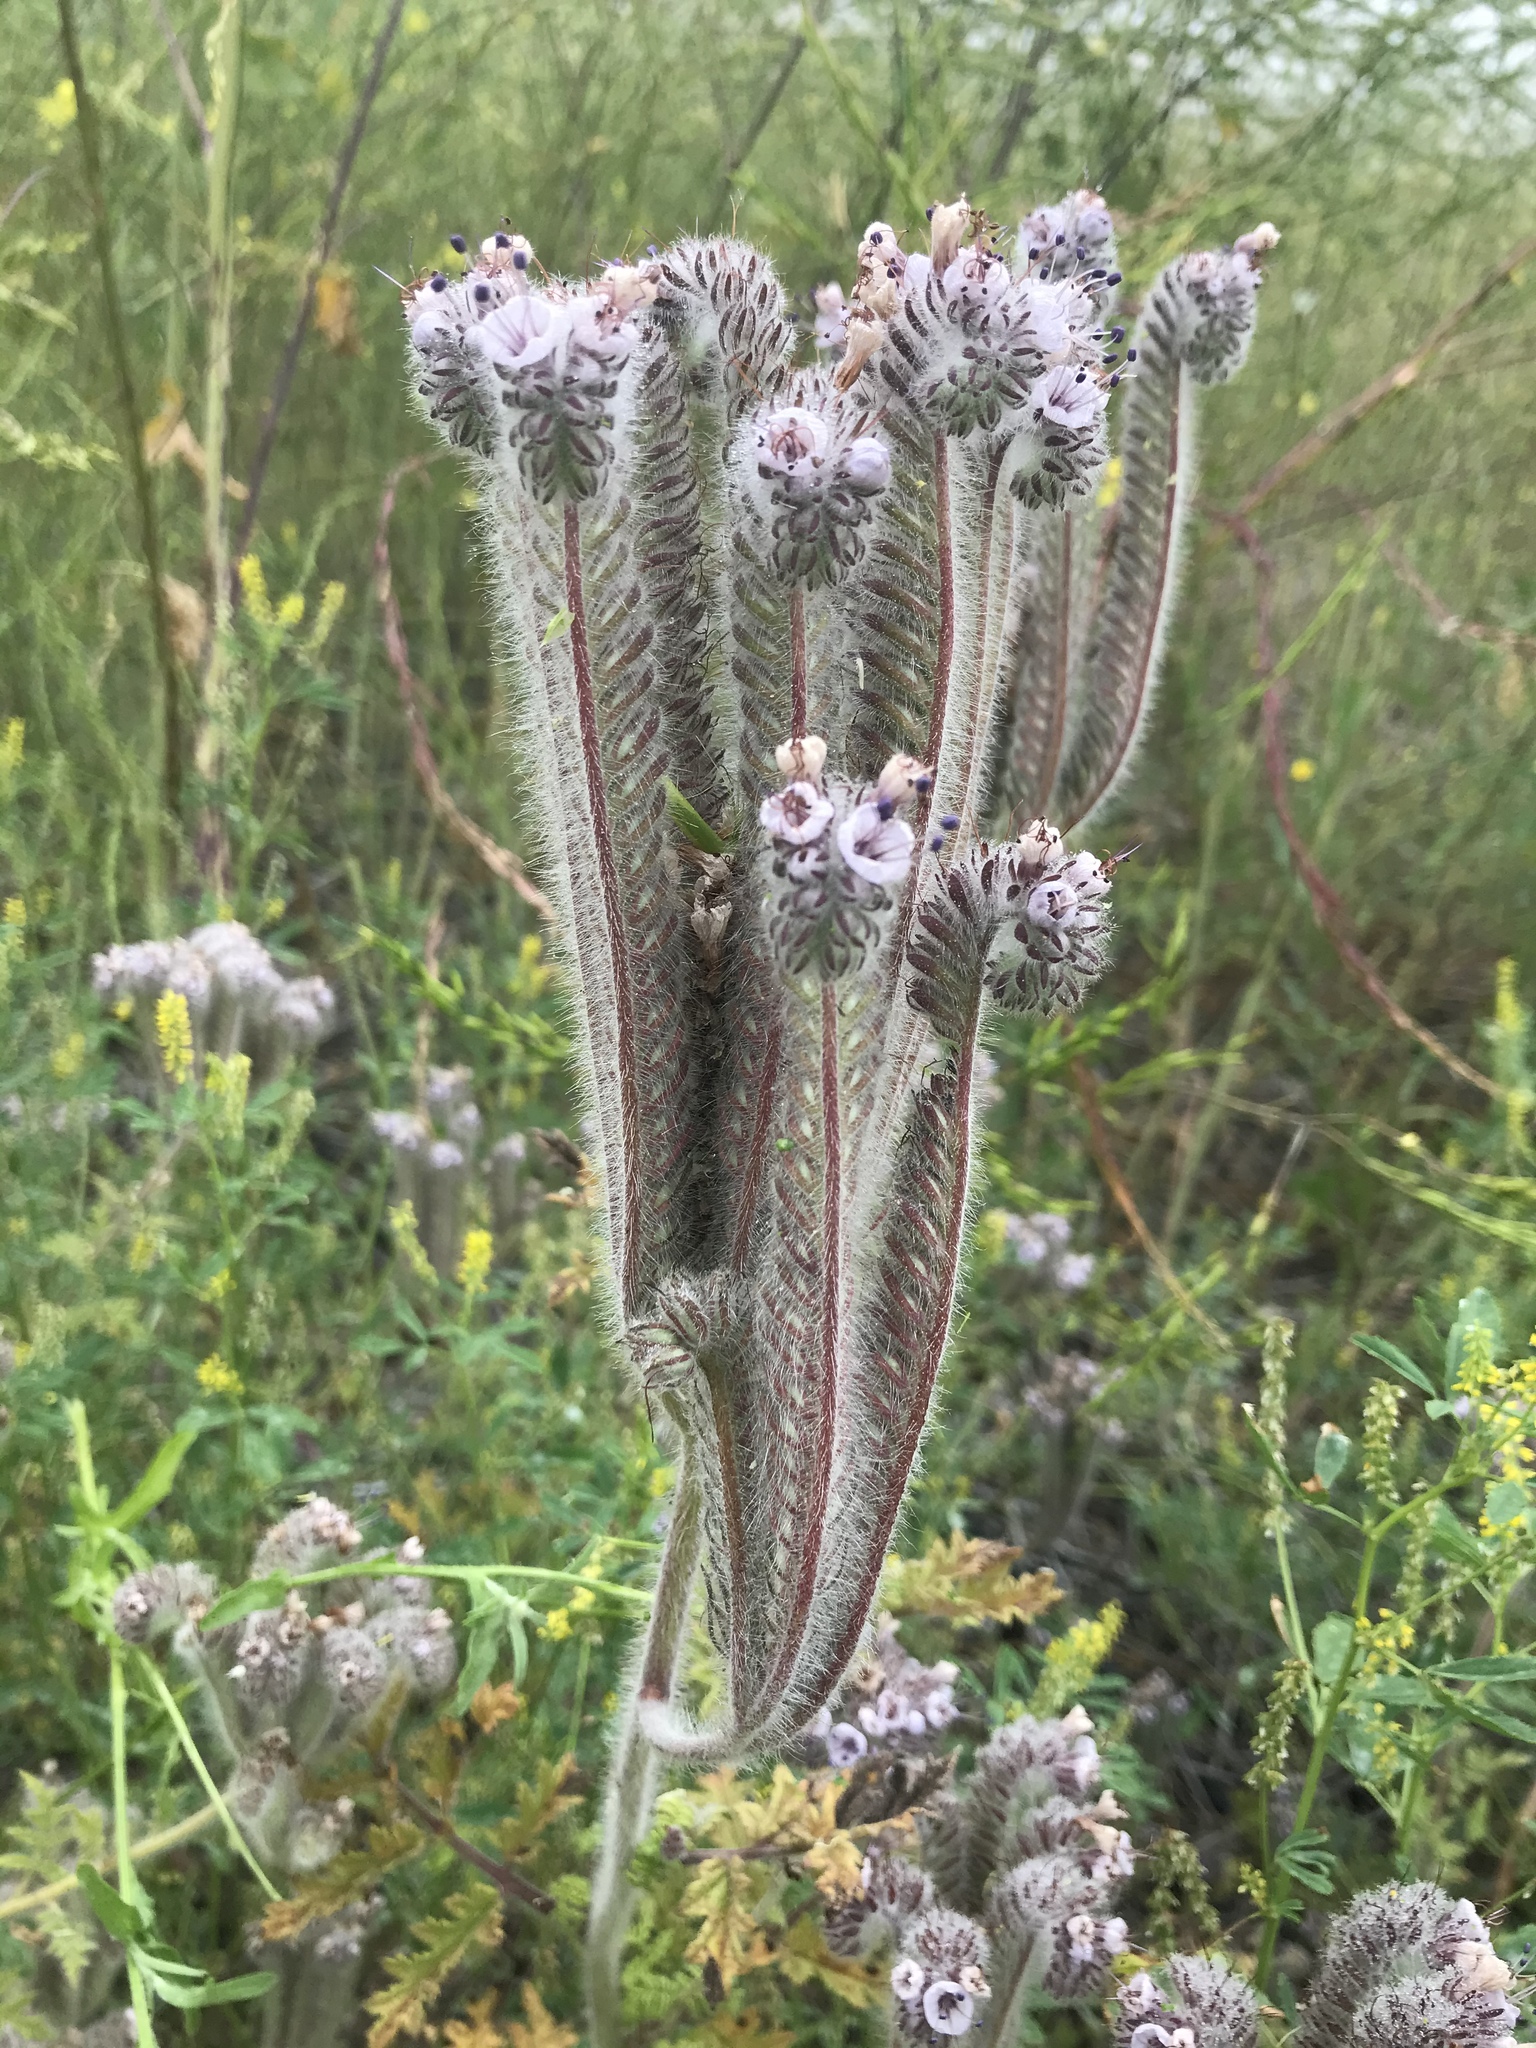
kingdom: Plantae
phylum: Tracheophyta
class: Magnoliopsida
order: Boraginales
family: Hydrophyllaceae
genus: Phacelia
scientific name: Phacelia hubbyi
